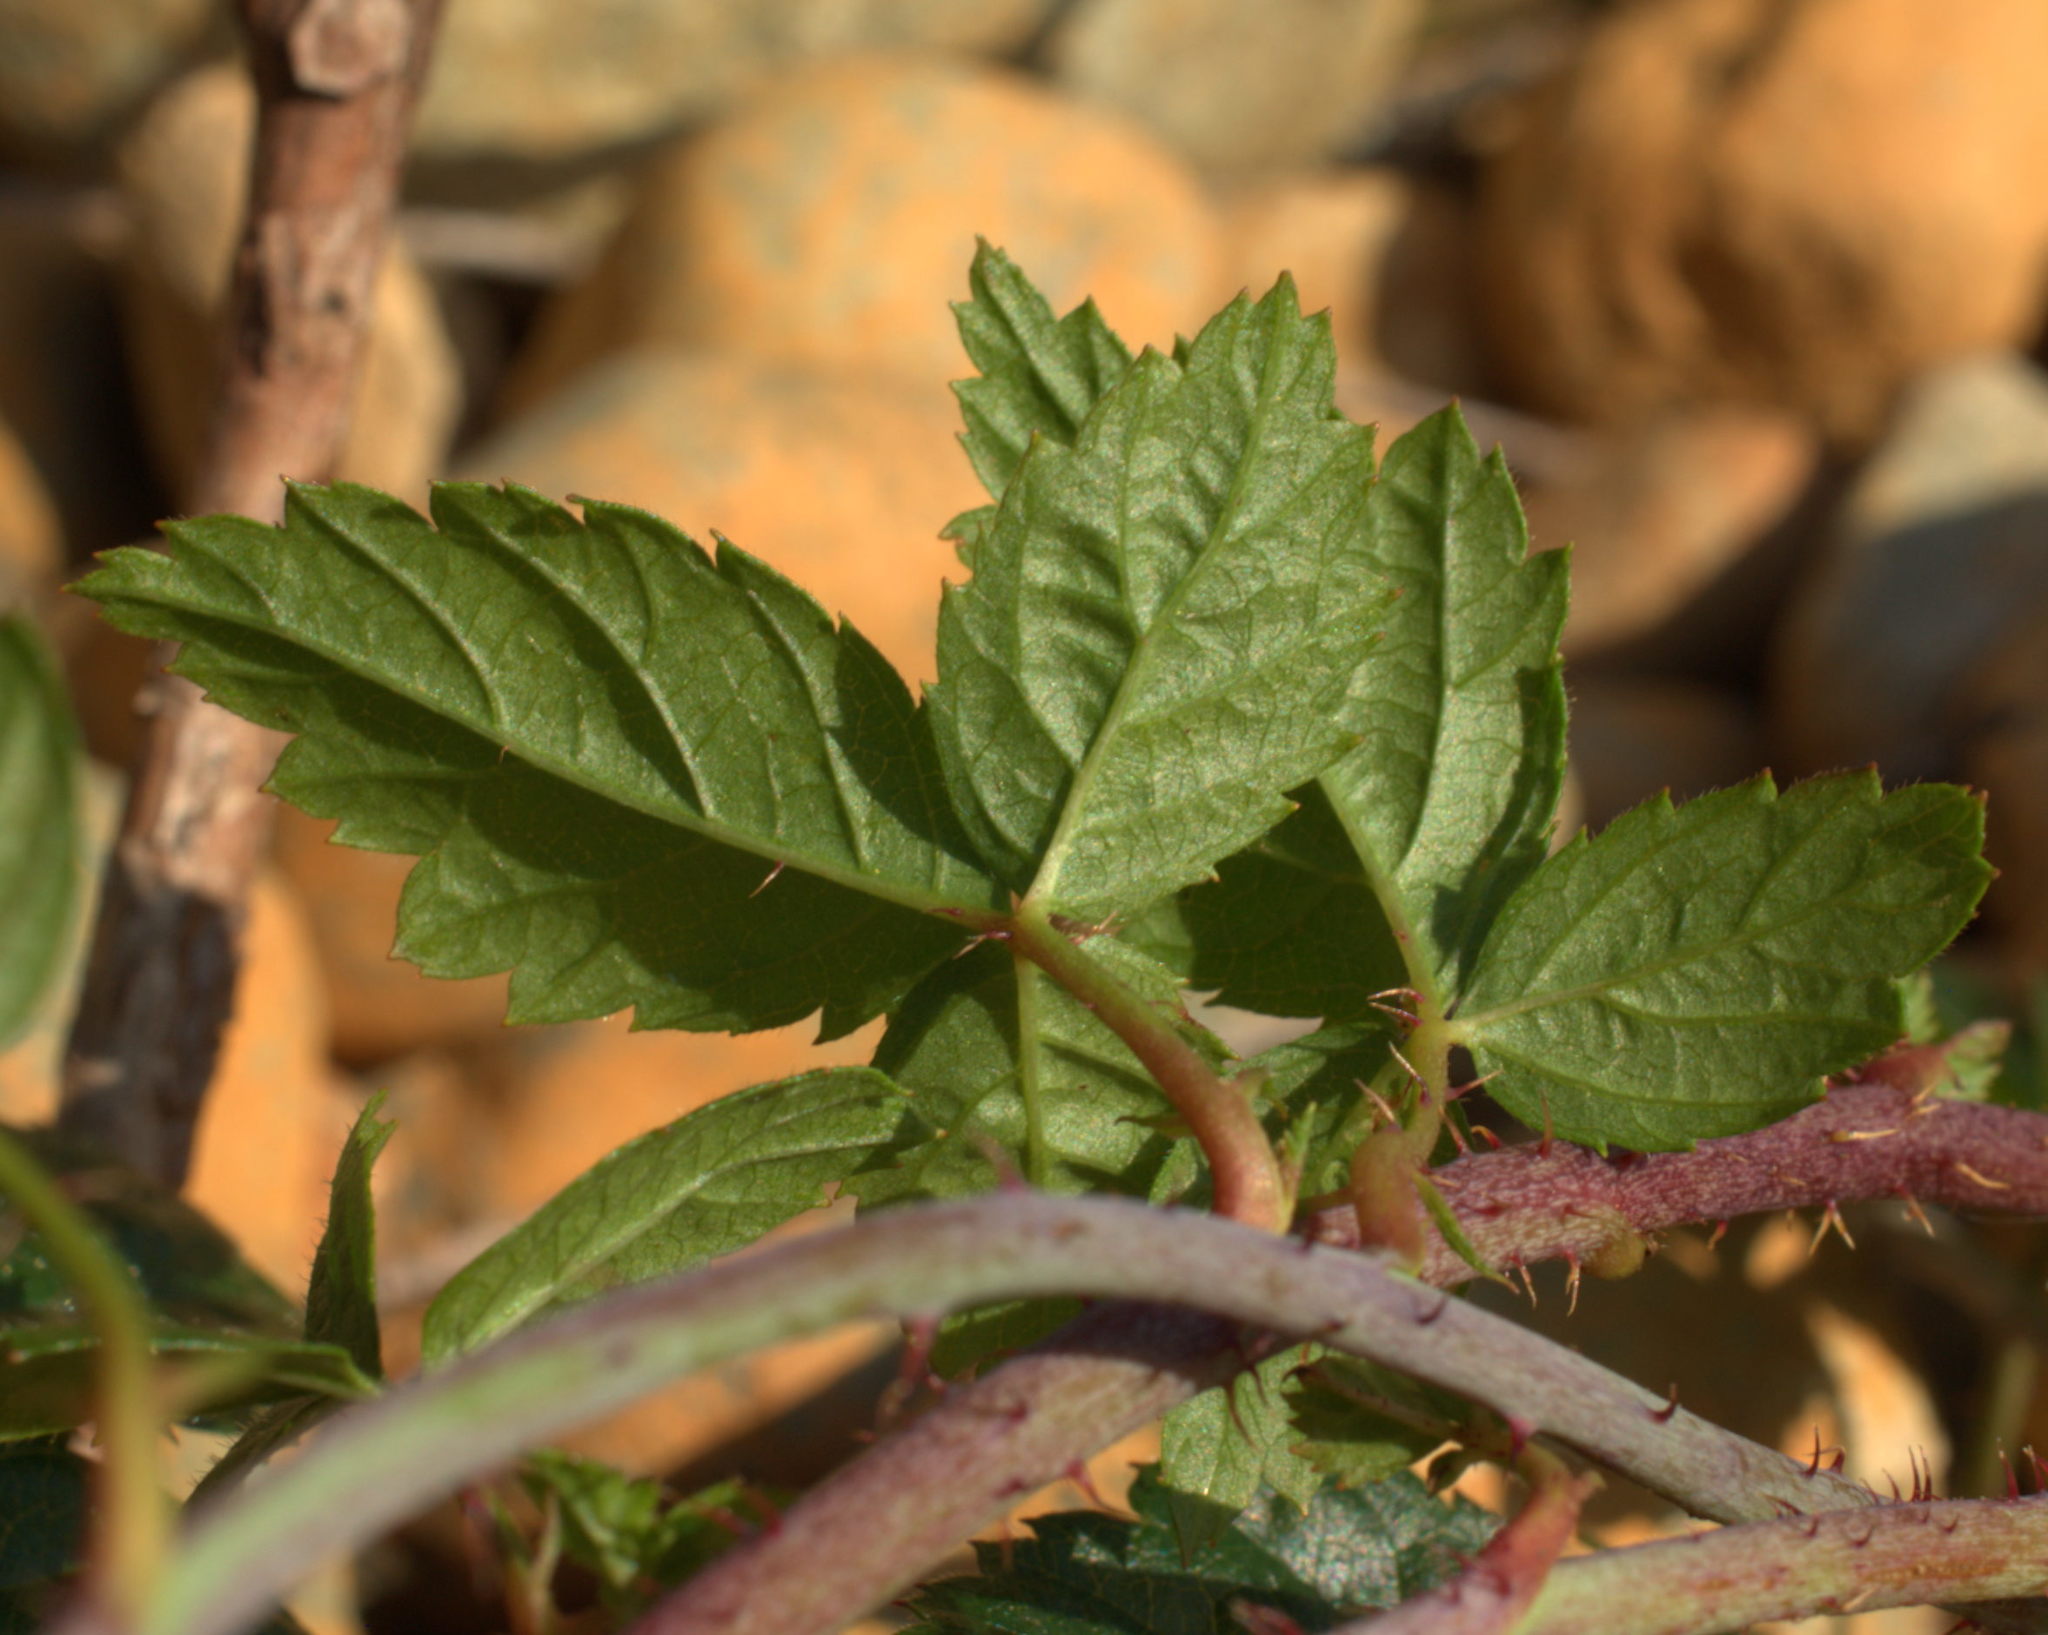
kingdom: Plantae
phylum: Tracheophyta
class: Magnoliopsida
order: Rosales
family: Rosaceae
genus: Rubus
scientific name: Rubus ursinus
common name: Pacific blackberry
